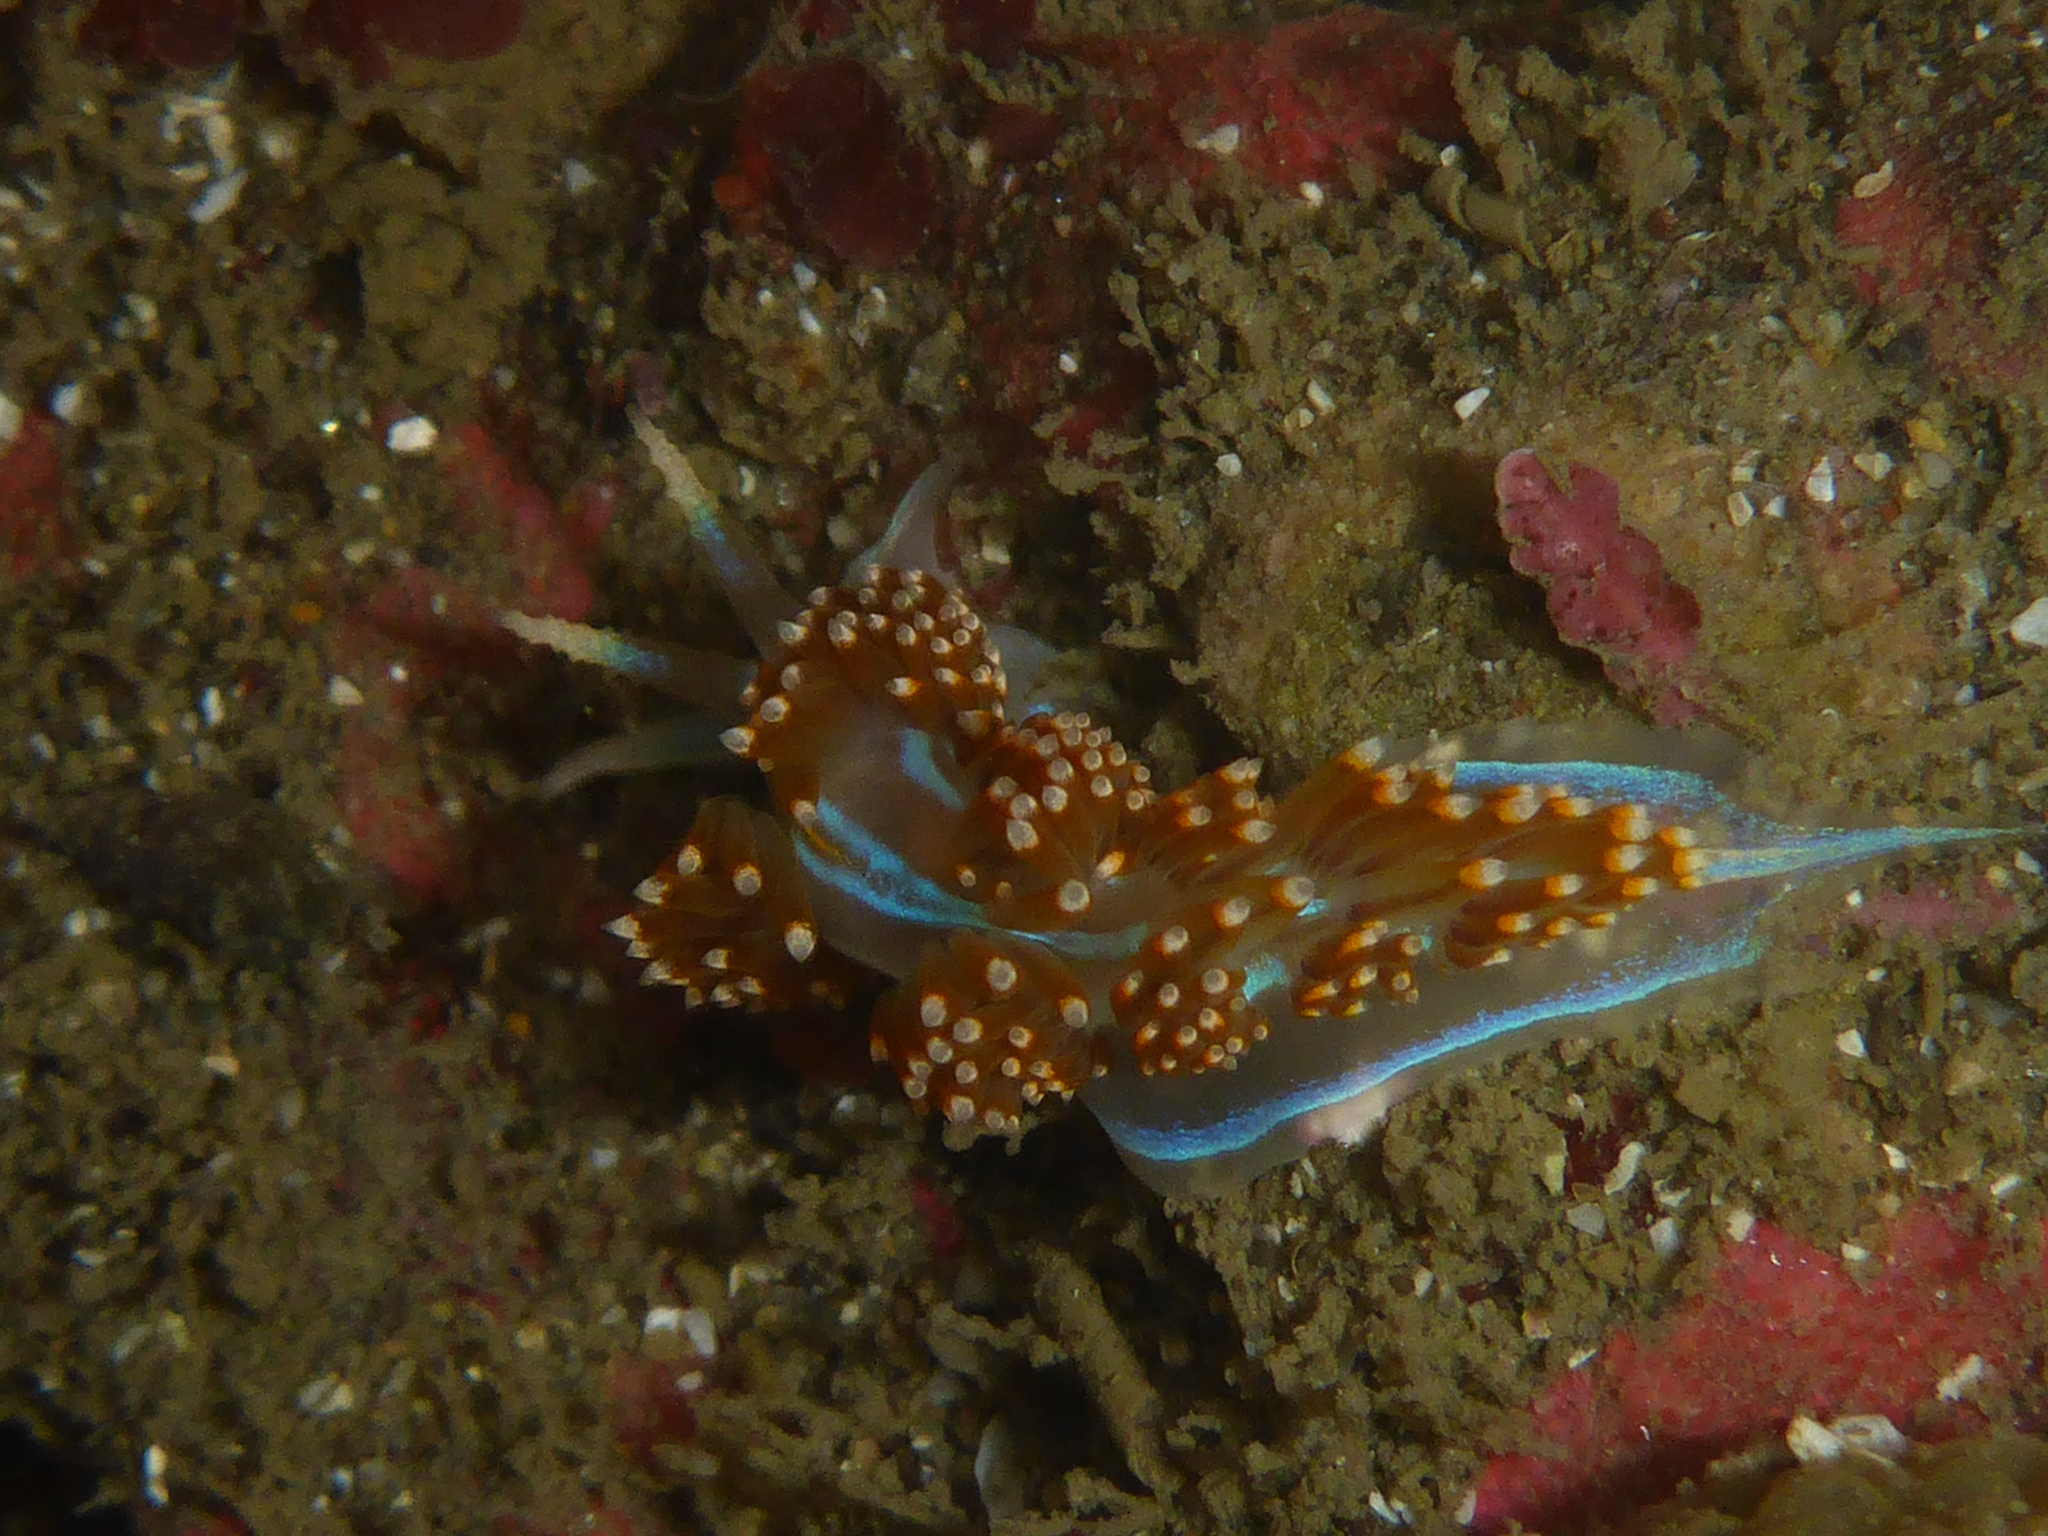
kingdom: Animalia
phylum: Mollusca
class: Gastropoda
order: Nudibranchia
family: Myrrhinidae
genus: Hermissenda
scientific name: Hermissenda opalescens
